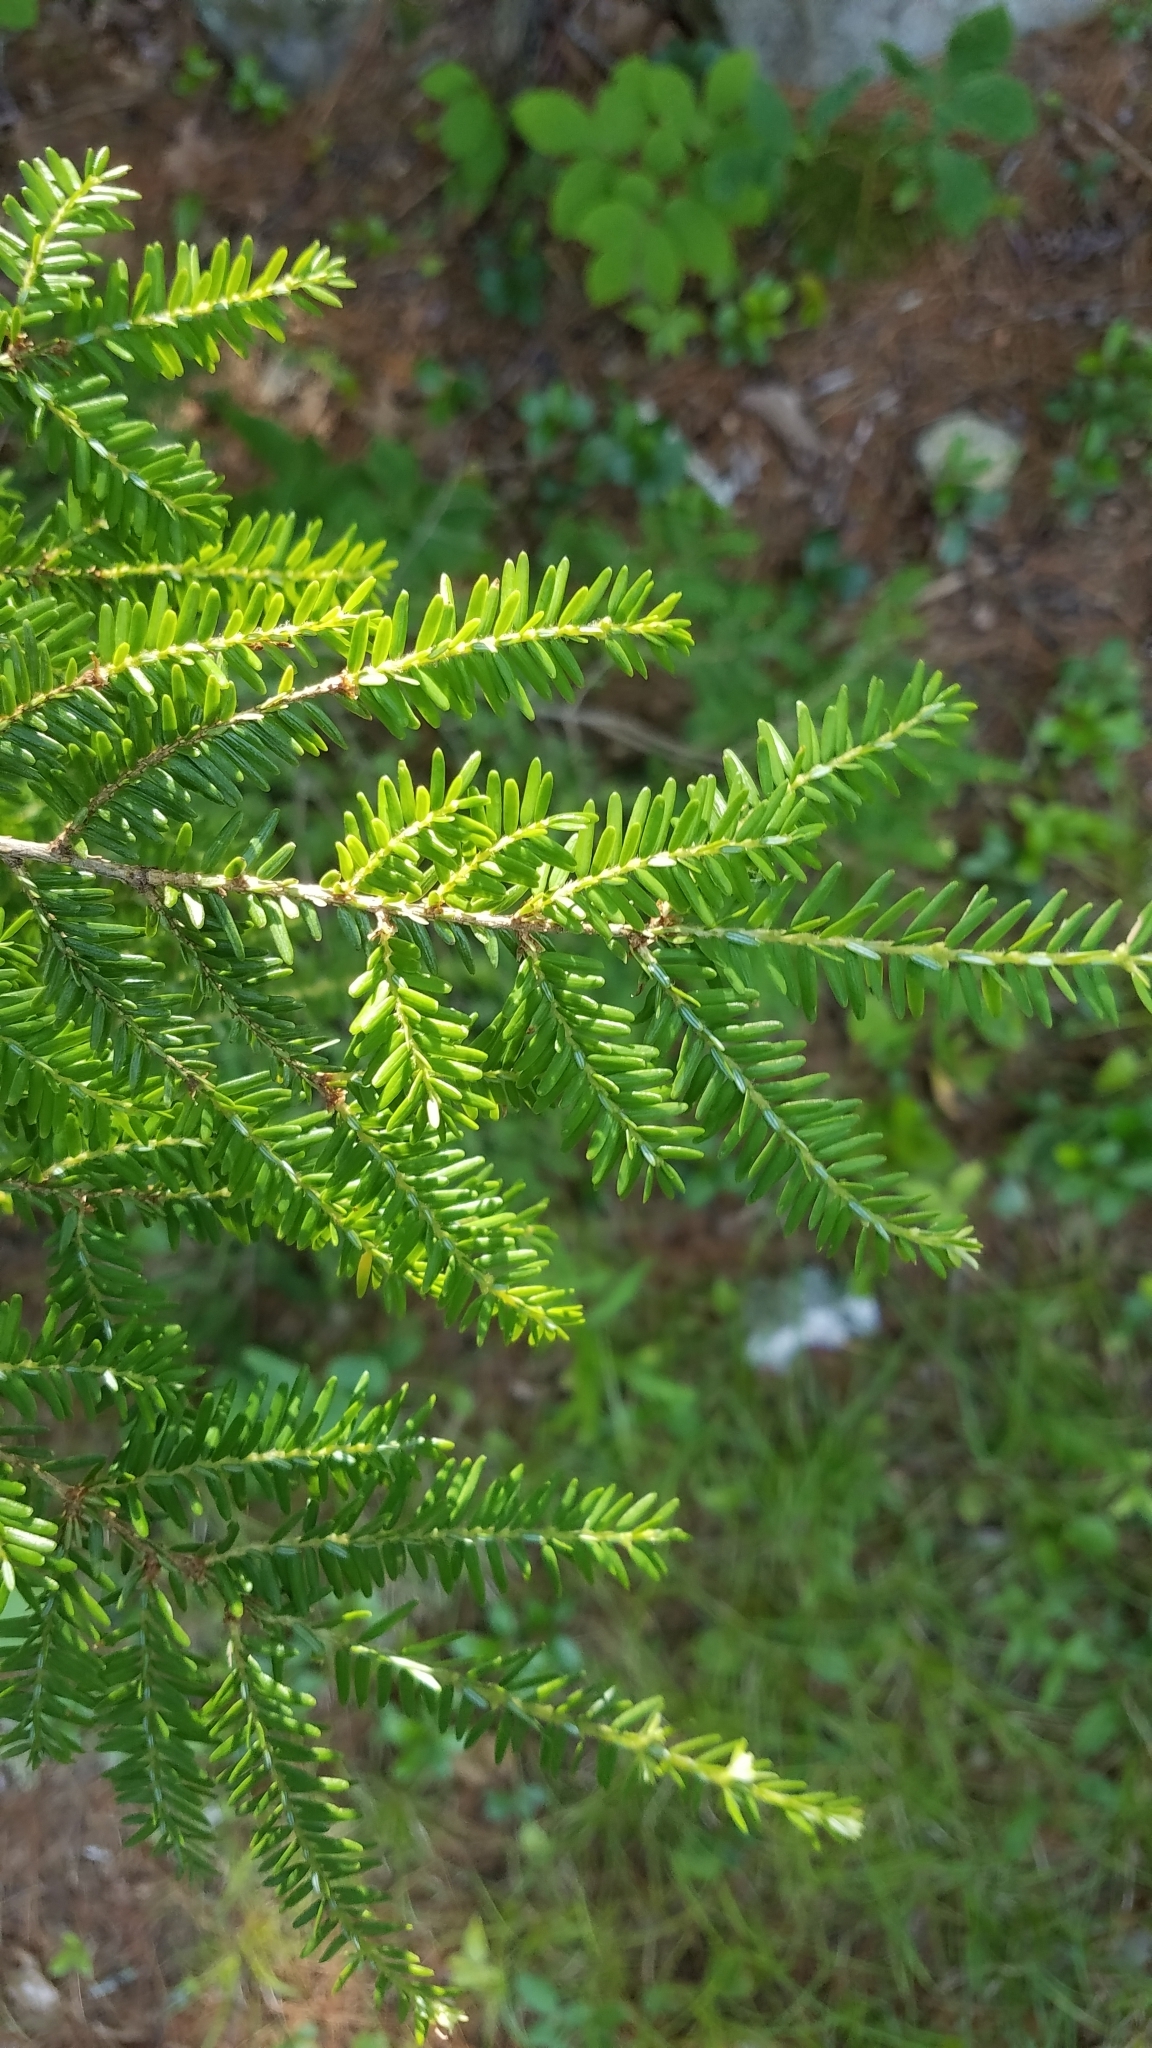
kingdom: Plantae
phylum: Tracheophyta
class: Pinopsida
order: Pinales
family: Pinaceae
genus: Tsuga
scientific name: Tsuga canadensis
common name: Eastern hemlock
